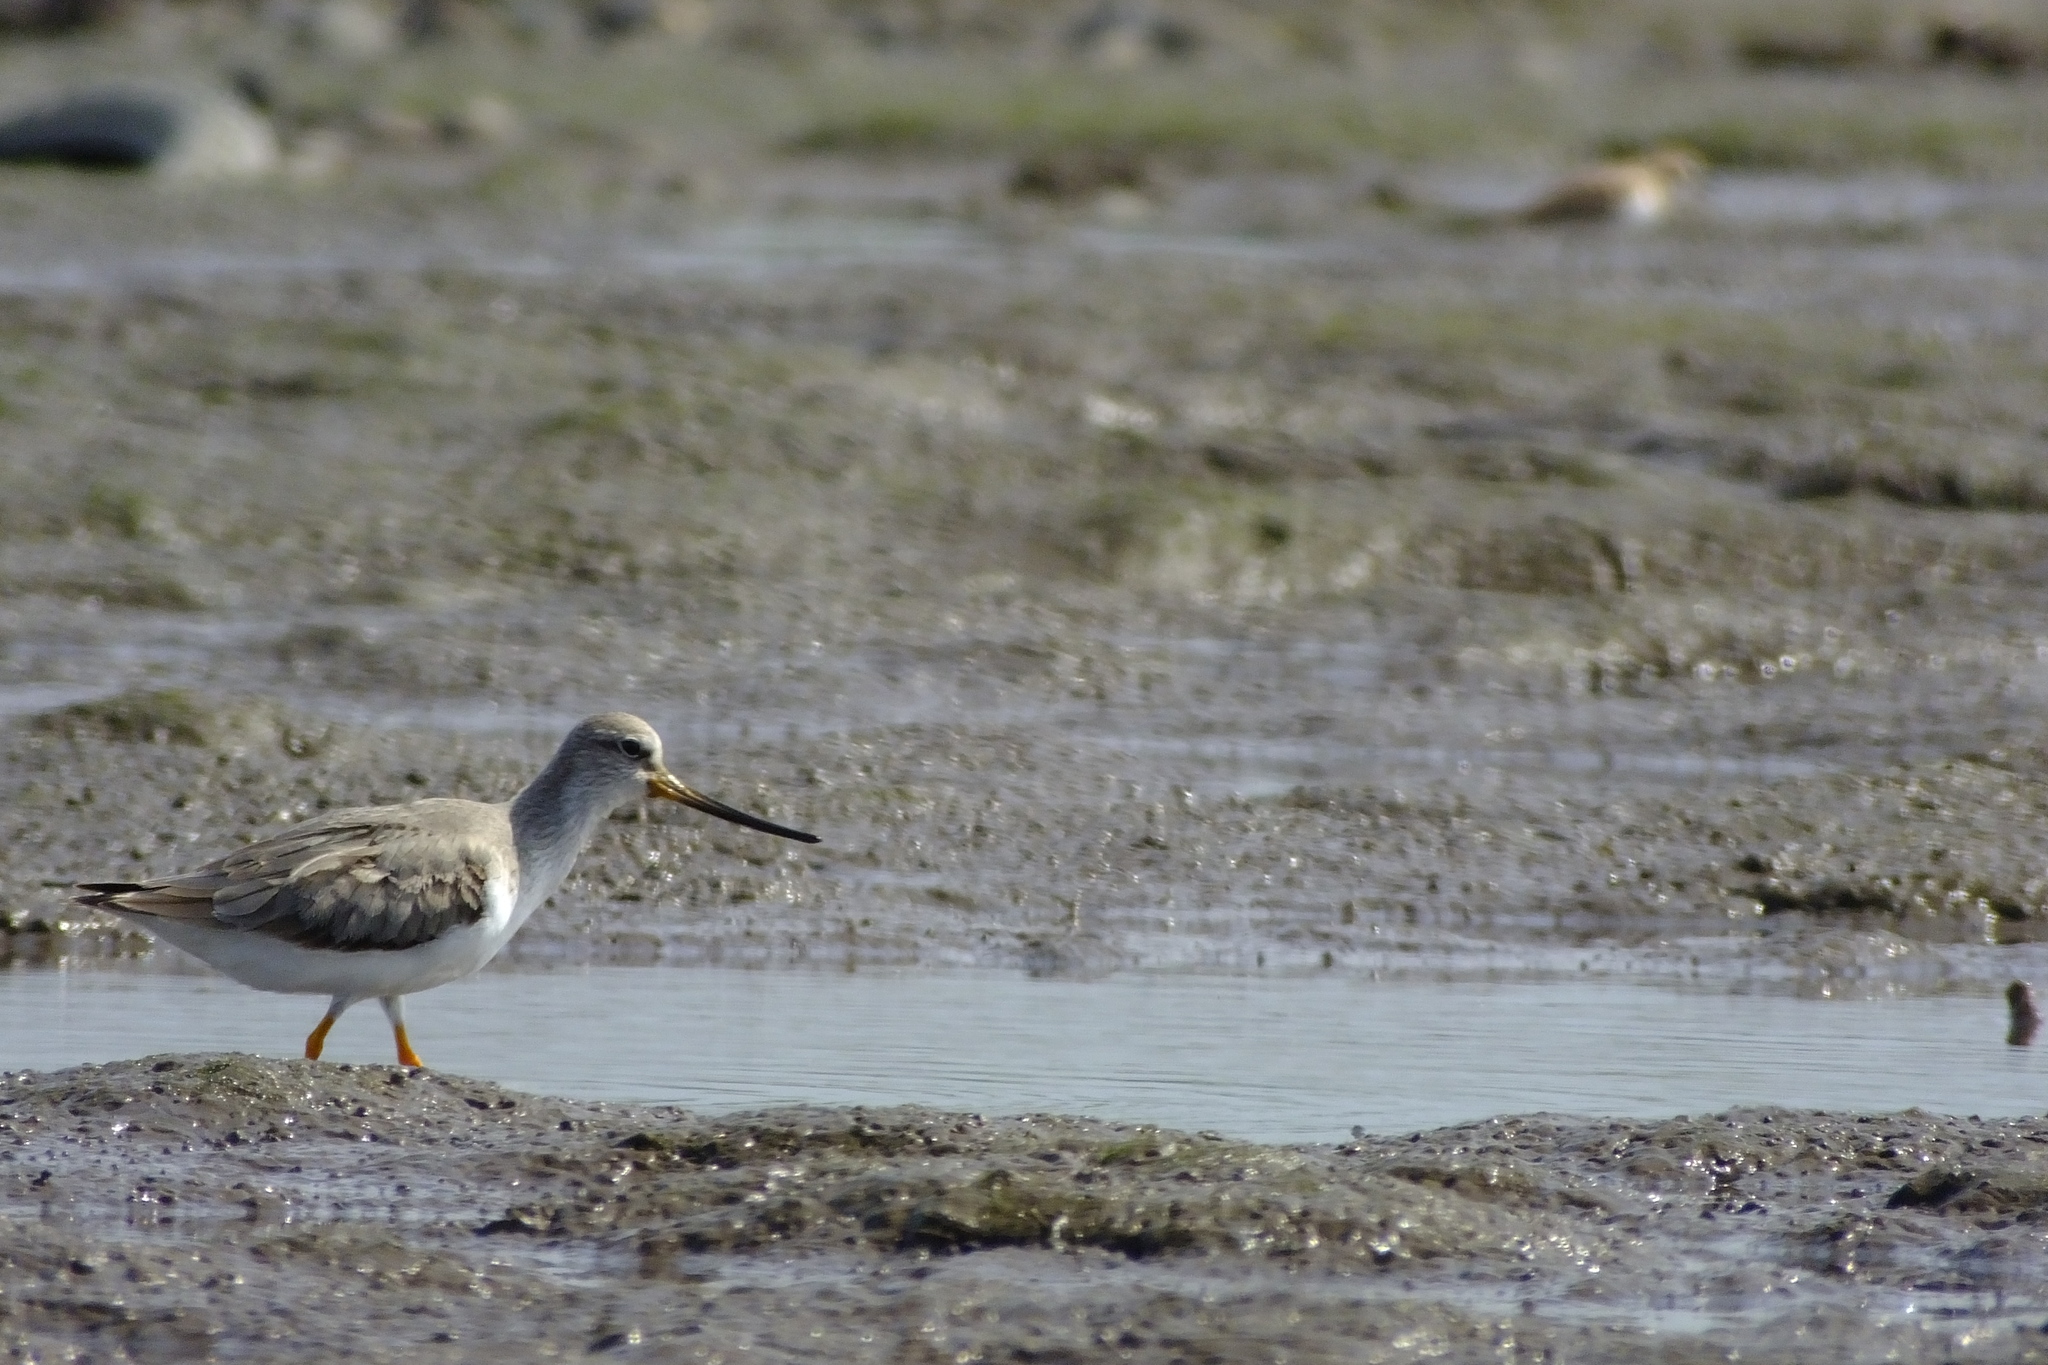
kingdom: Animalia
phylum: Chordata
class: Aves
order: Charadriiformes
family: Scolopacidae
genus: Xenus
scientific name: Xenus cinereus
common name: Terek sandpiper
